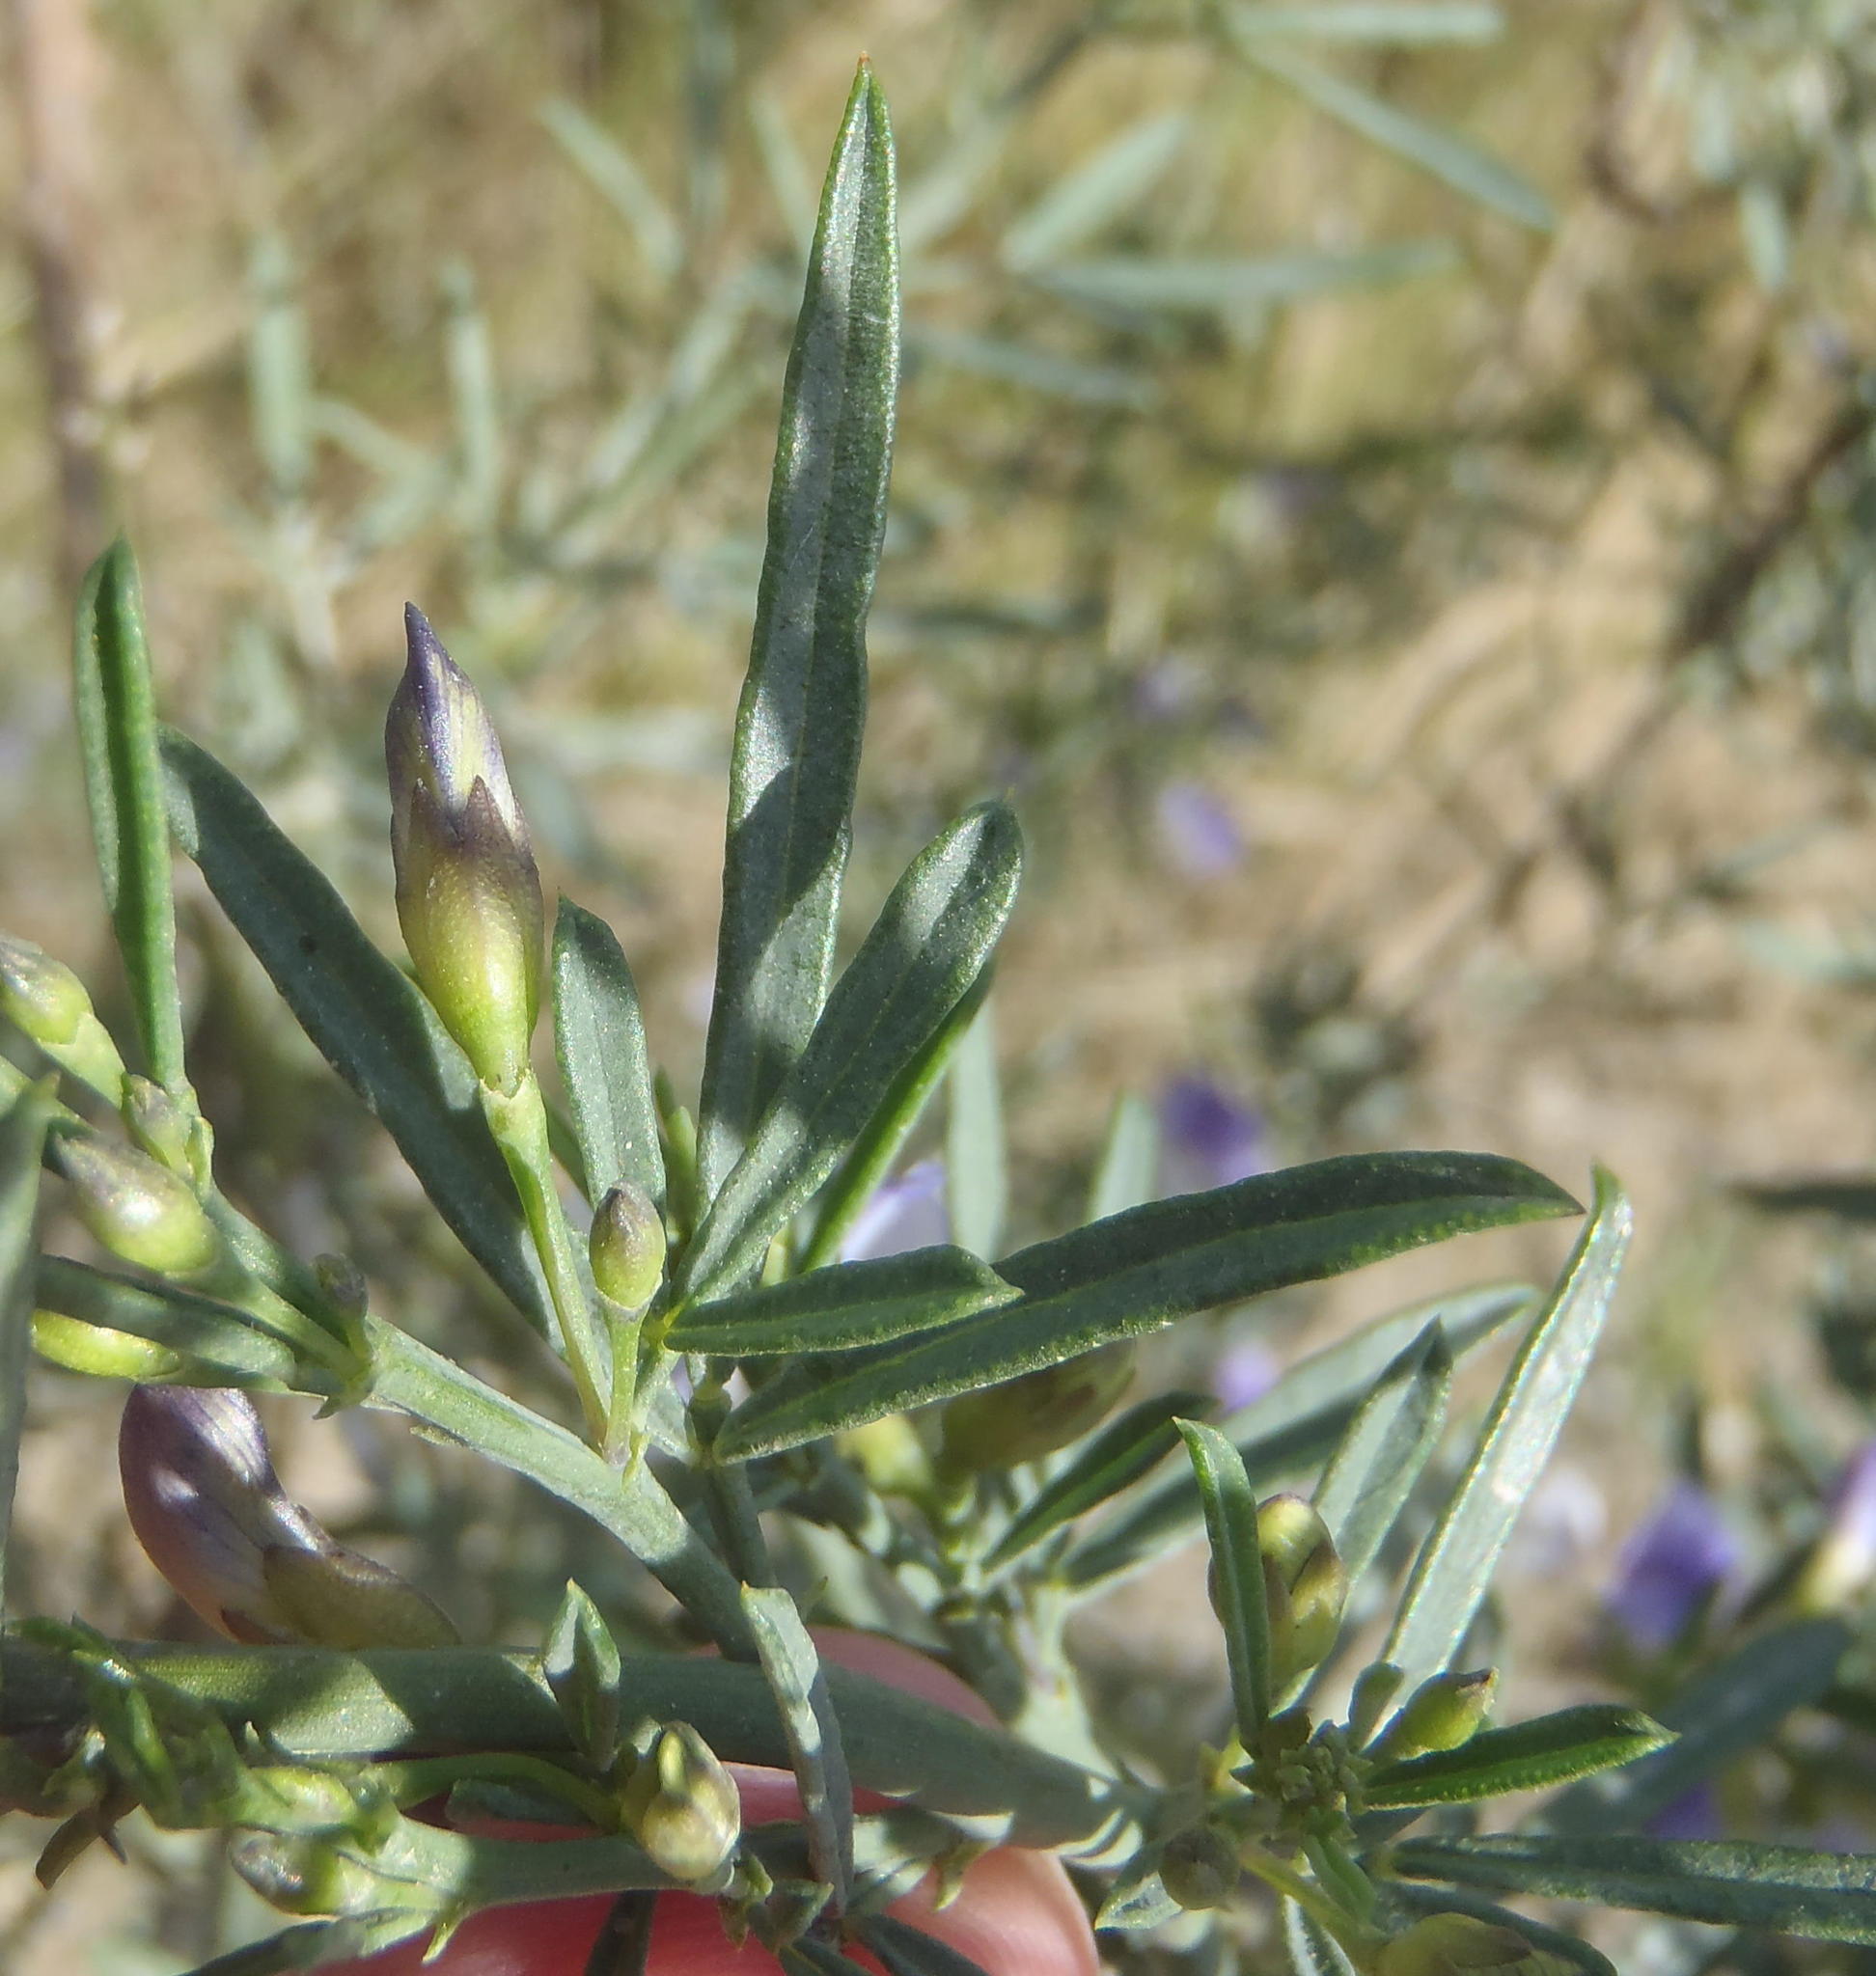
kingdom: Plantae
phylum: Tracheophyta
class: Magnoliopsida
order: Fabales
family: Fabaceae
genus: Psoralea
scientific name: Psoralea axillaris
